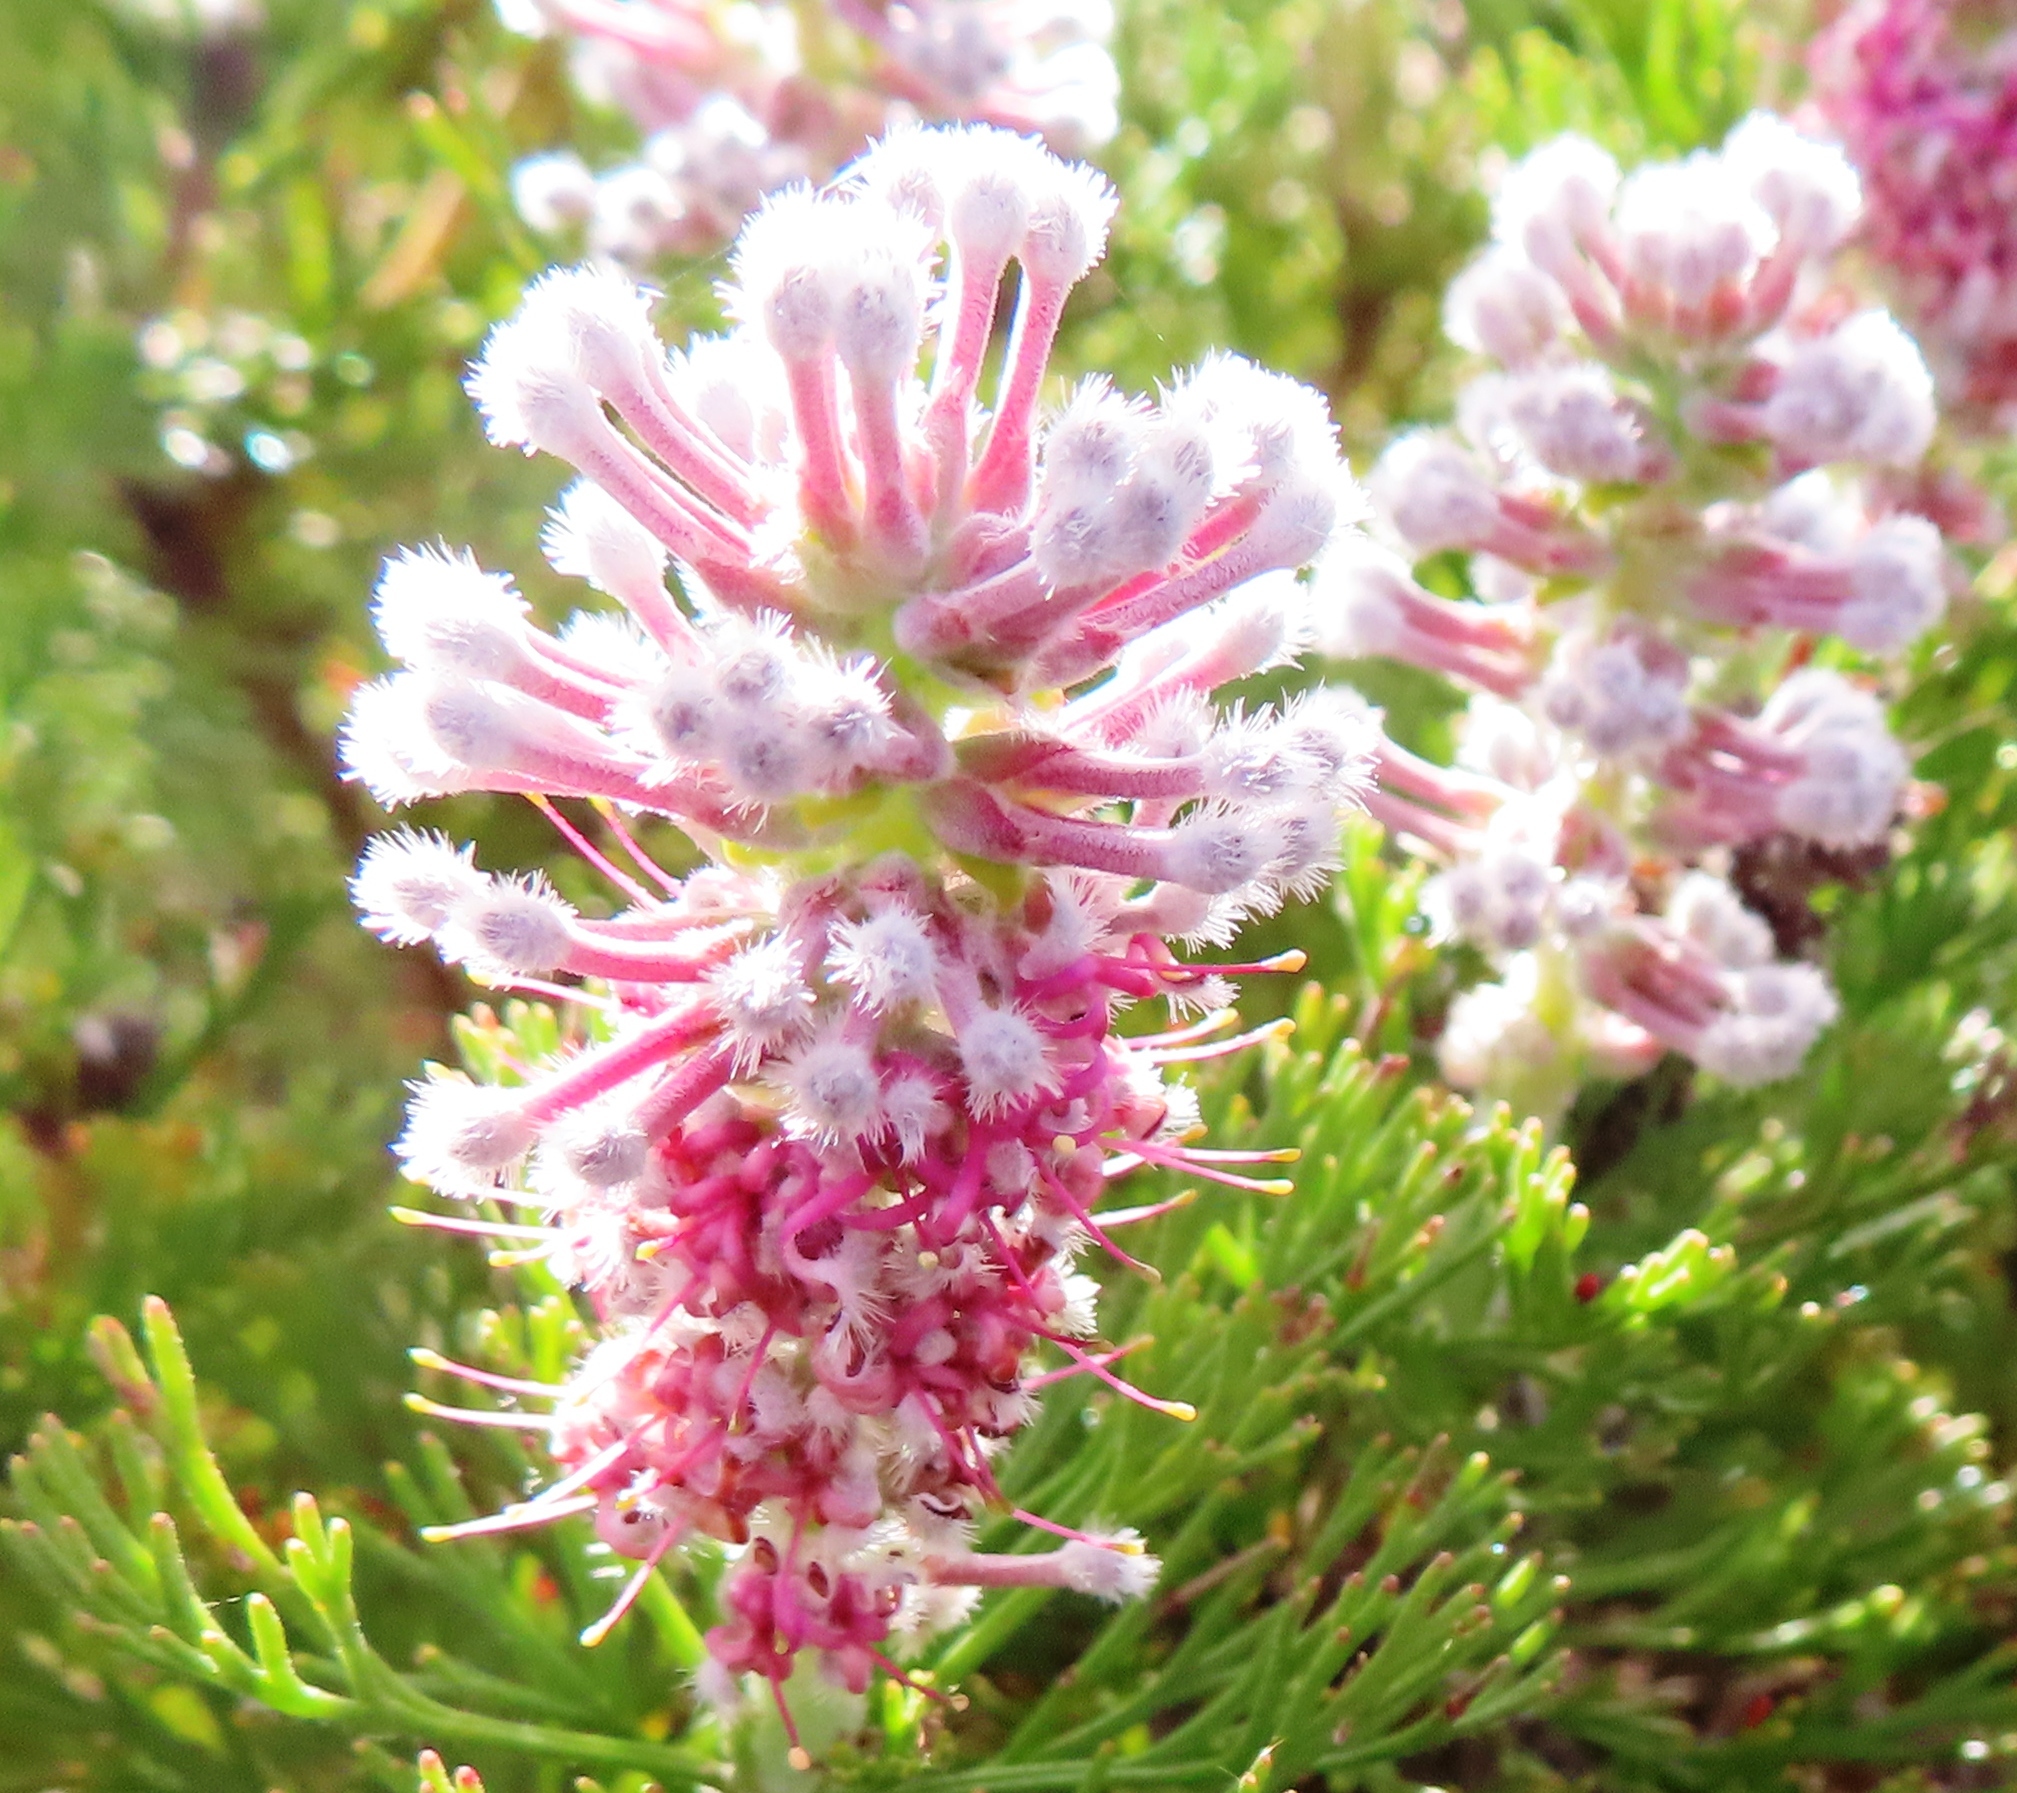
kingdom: Plantae
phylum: Tracheophyta
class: Magnoliopsida
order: Proteales
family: Proteaceae
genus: Paranomus
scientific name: Paranomus abrotanifolius
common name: Bredasdorp sceptre
